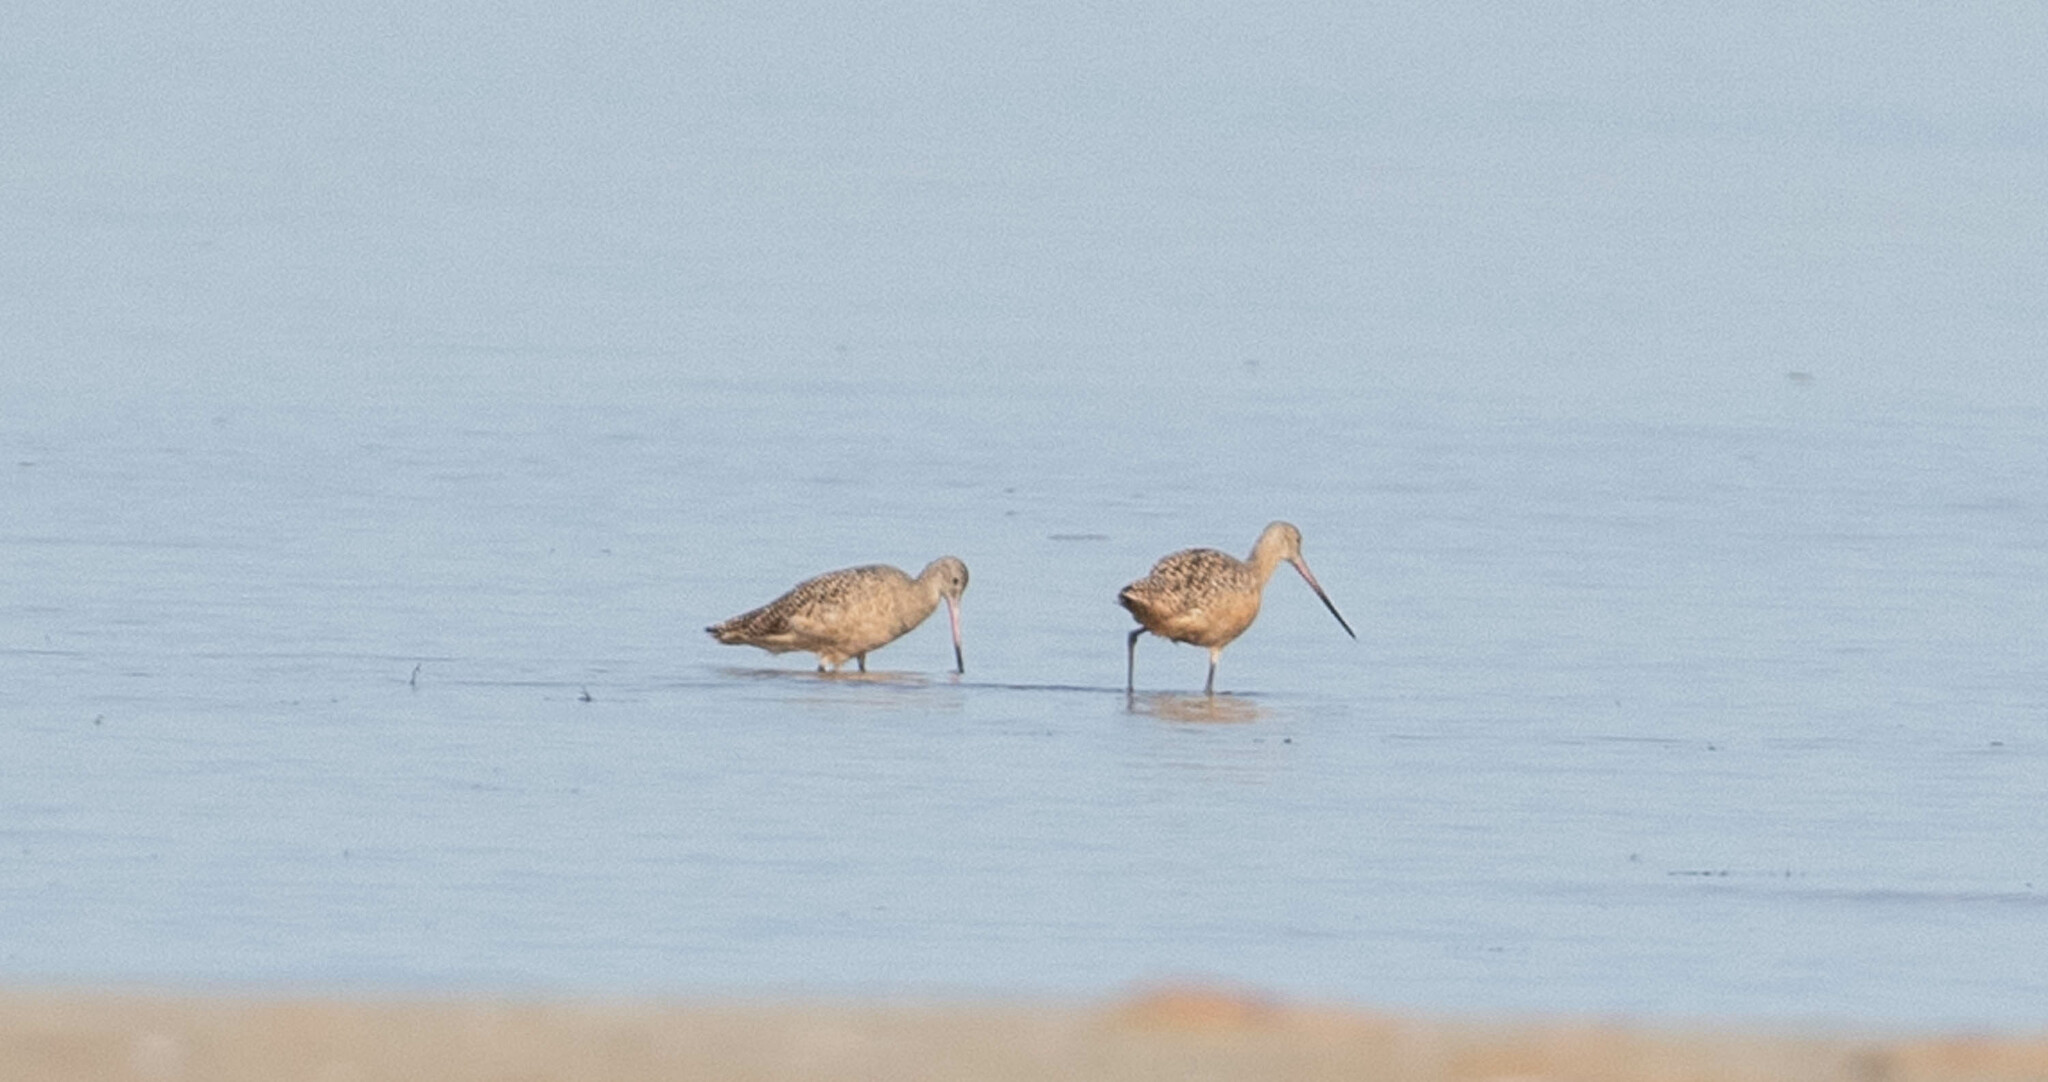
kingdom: Animalia
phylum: Chordata
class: Aves
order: Charadriiformes
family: Scolopacidae
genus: Limosa
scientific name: Limosa fedoa
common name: Marbled godwit
